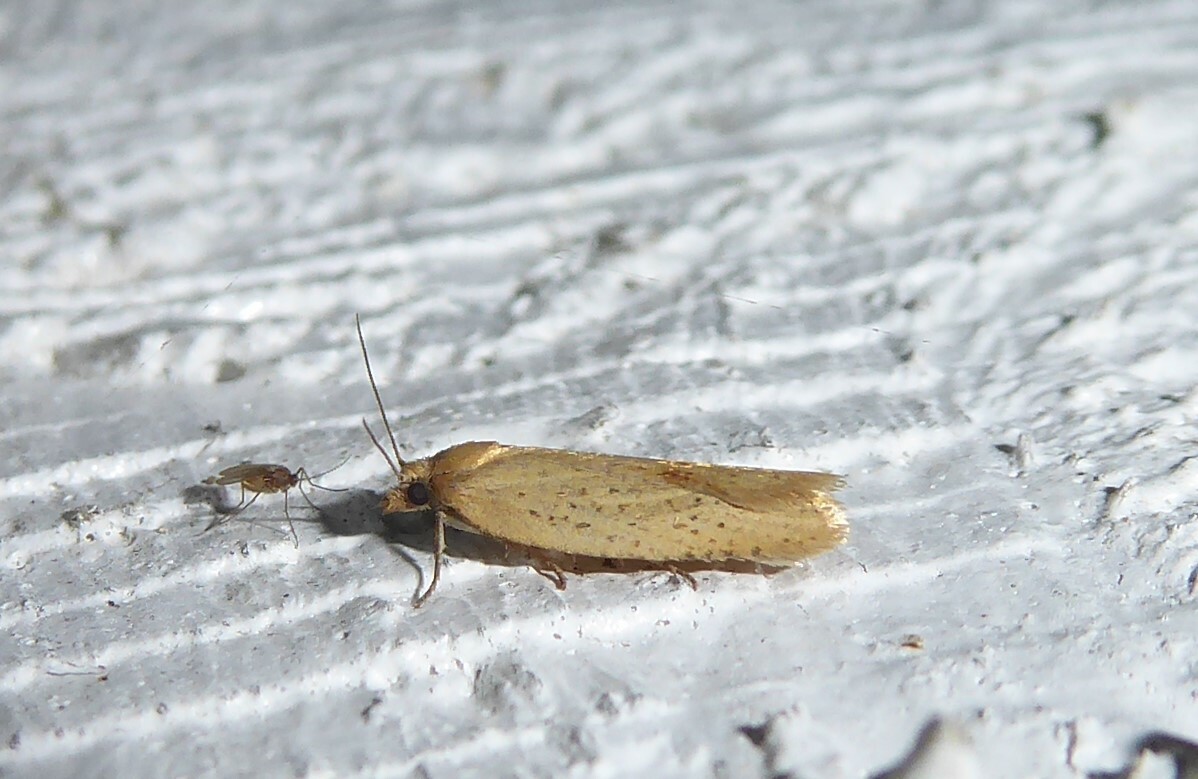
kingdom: Animalia
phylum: Arthropoda
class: Insecta
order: Lepidoptera
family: Tortricidae
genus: Clepsis
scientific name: Clepsis
